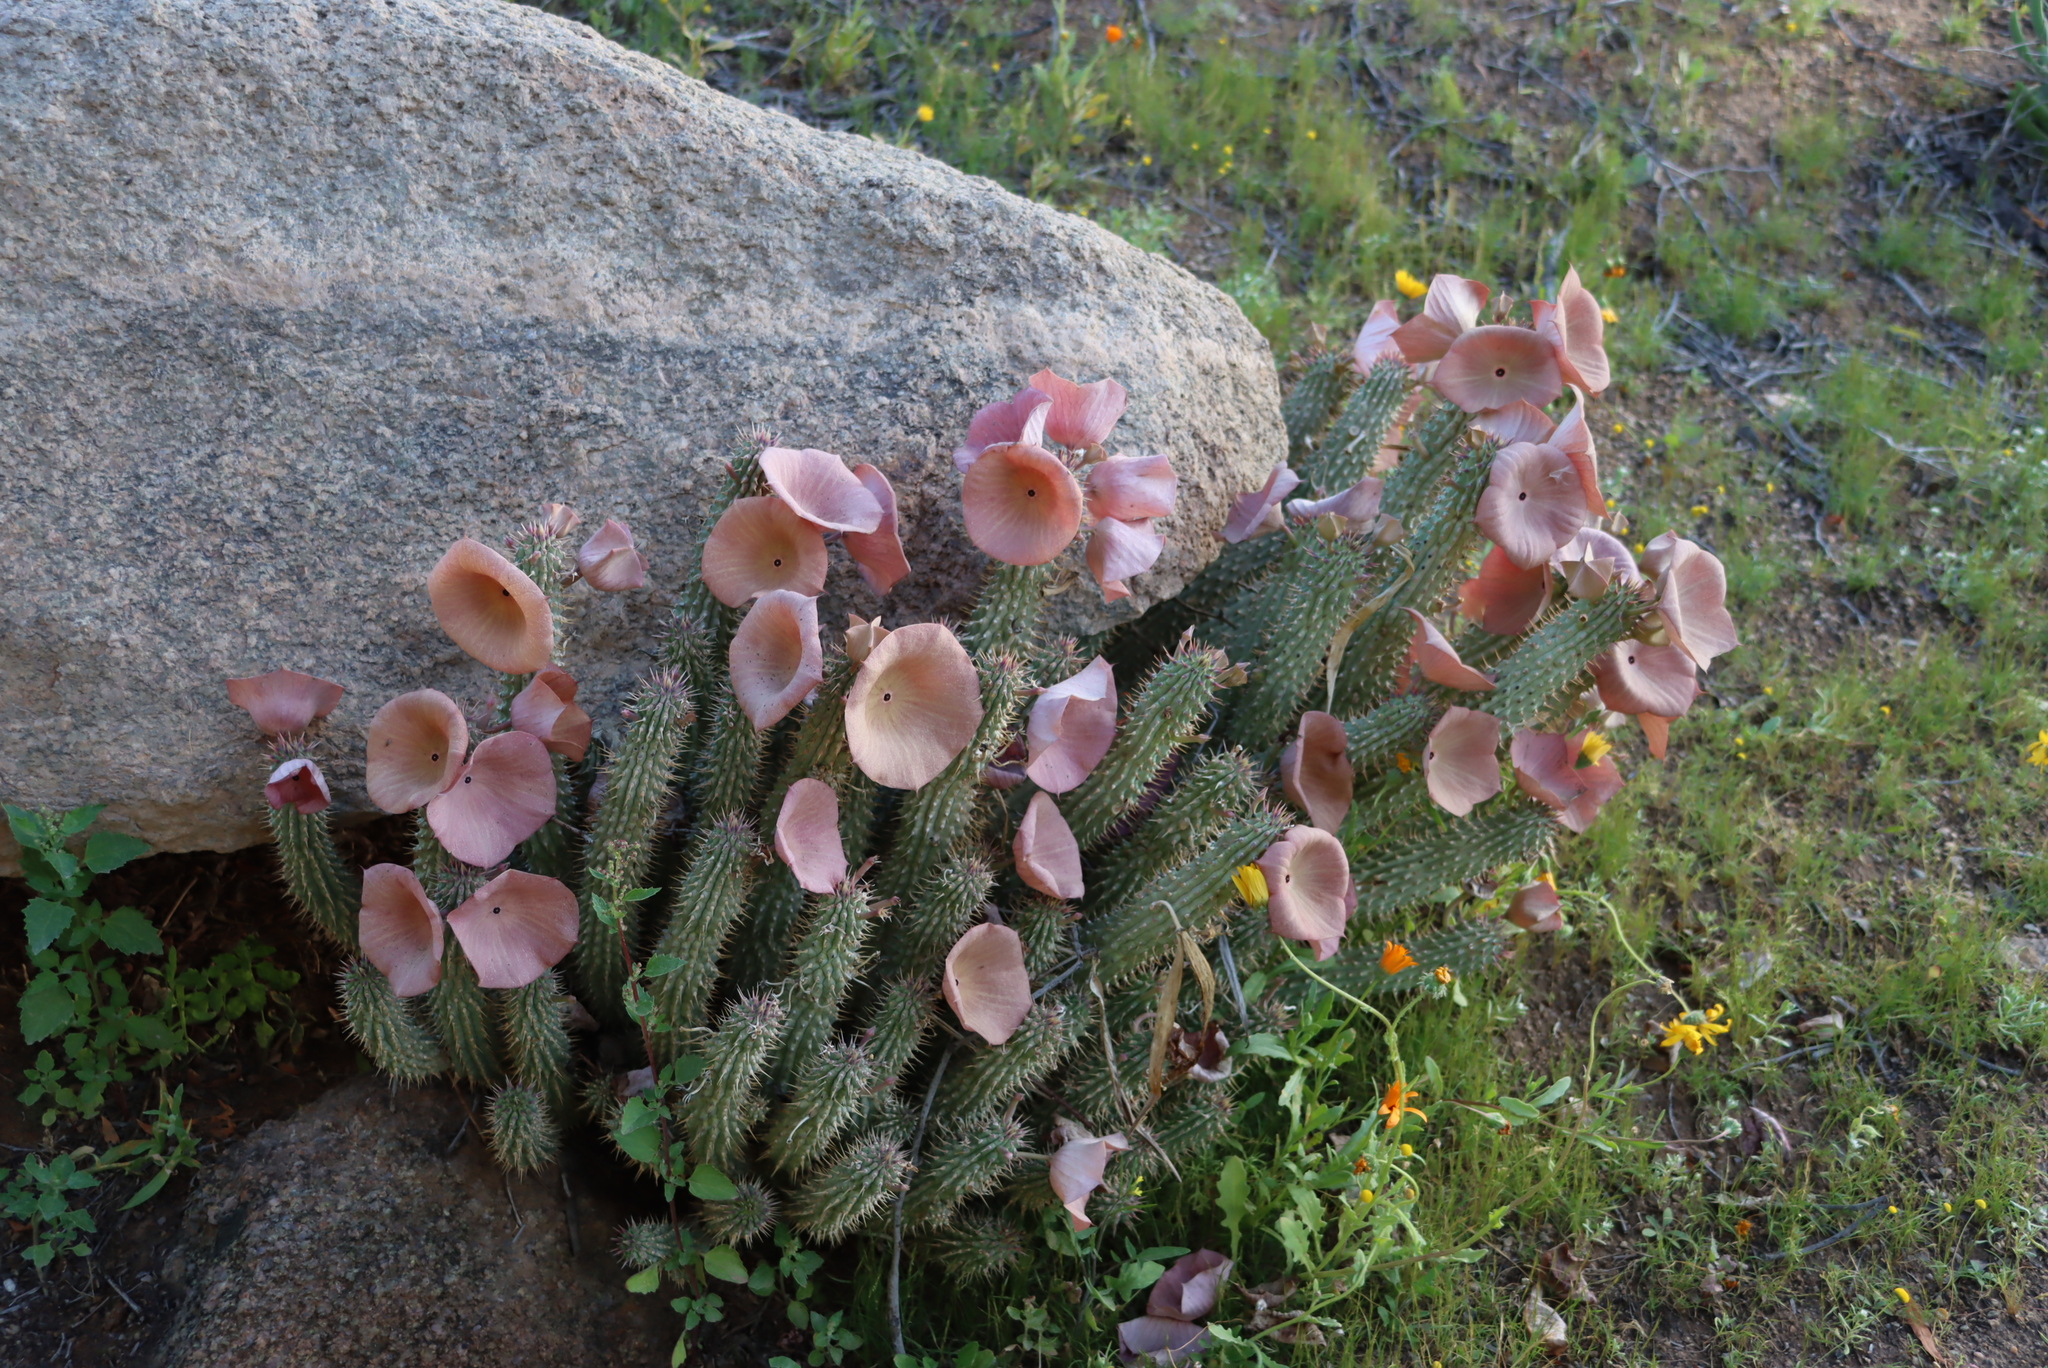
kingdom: Plantae
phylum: Tracheophyta
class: Magnoliopsida
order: Gentianales
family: Apocynaceae
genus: Hoodia
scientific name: Hoodia gordonii
